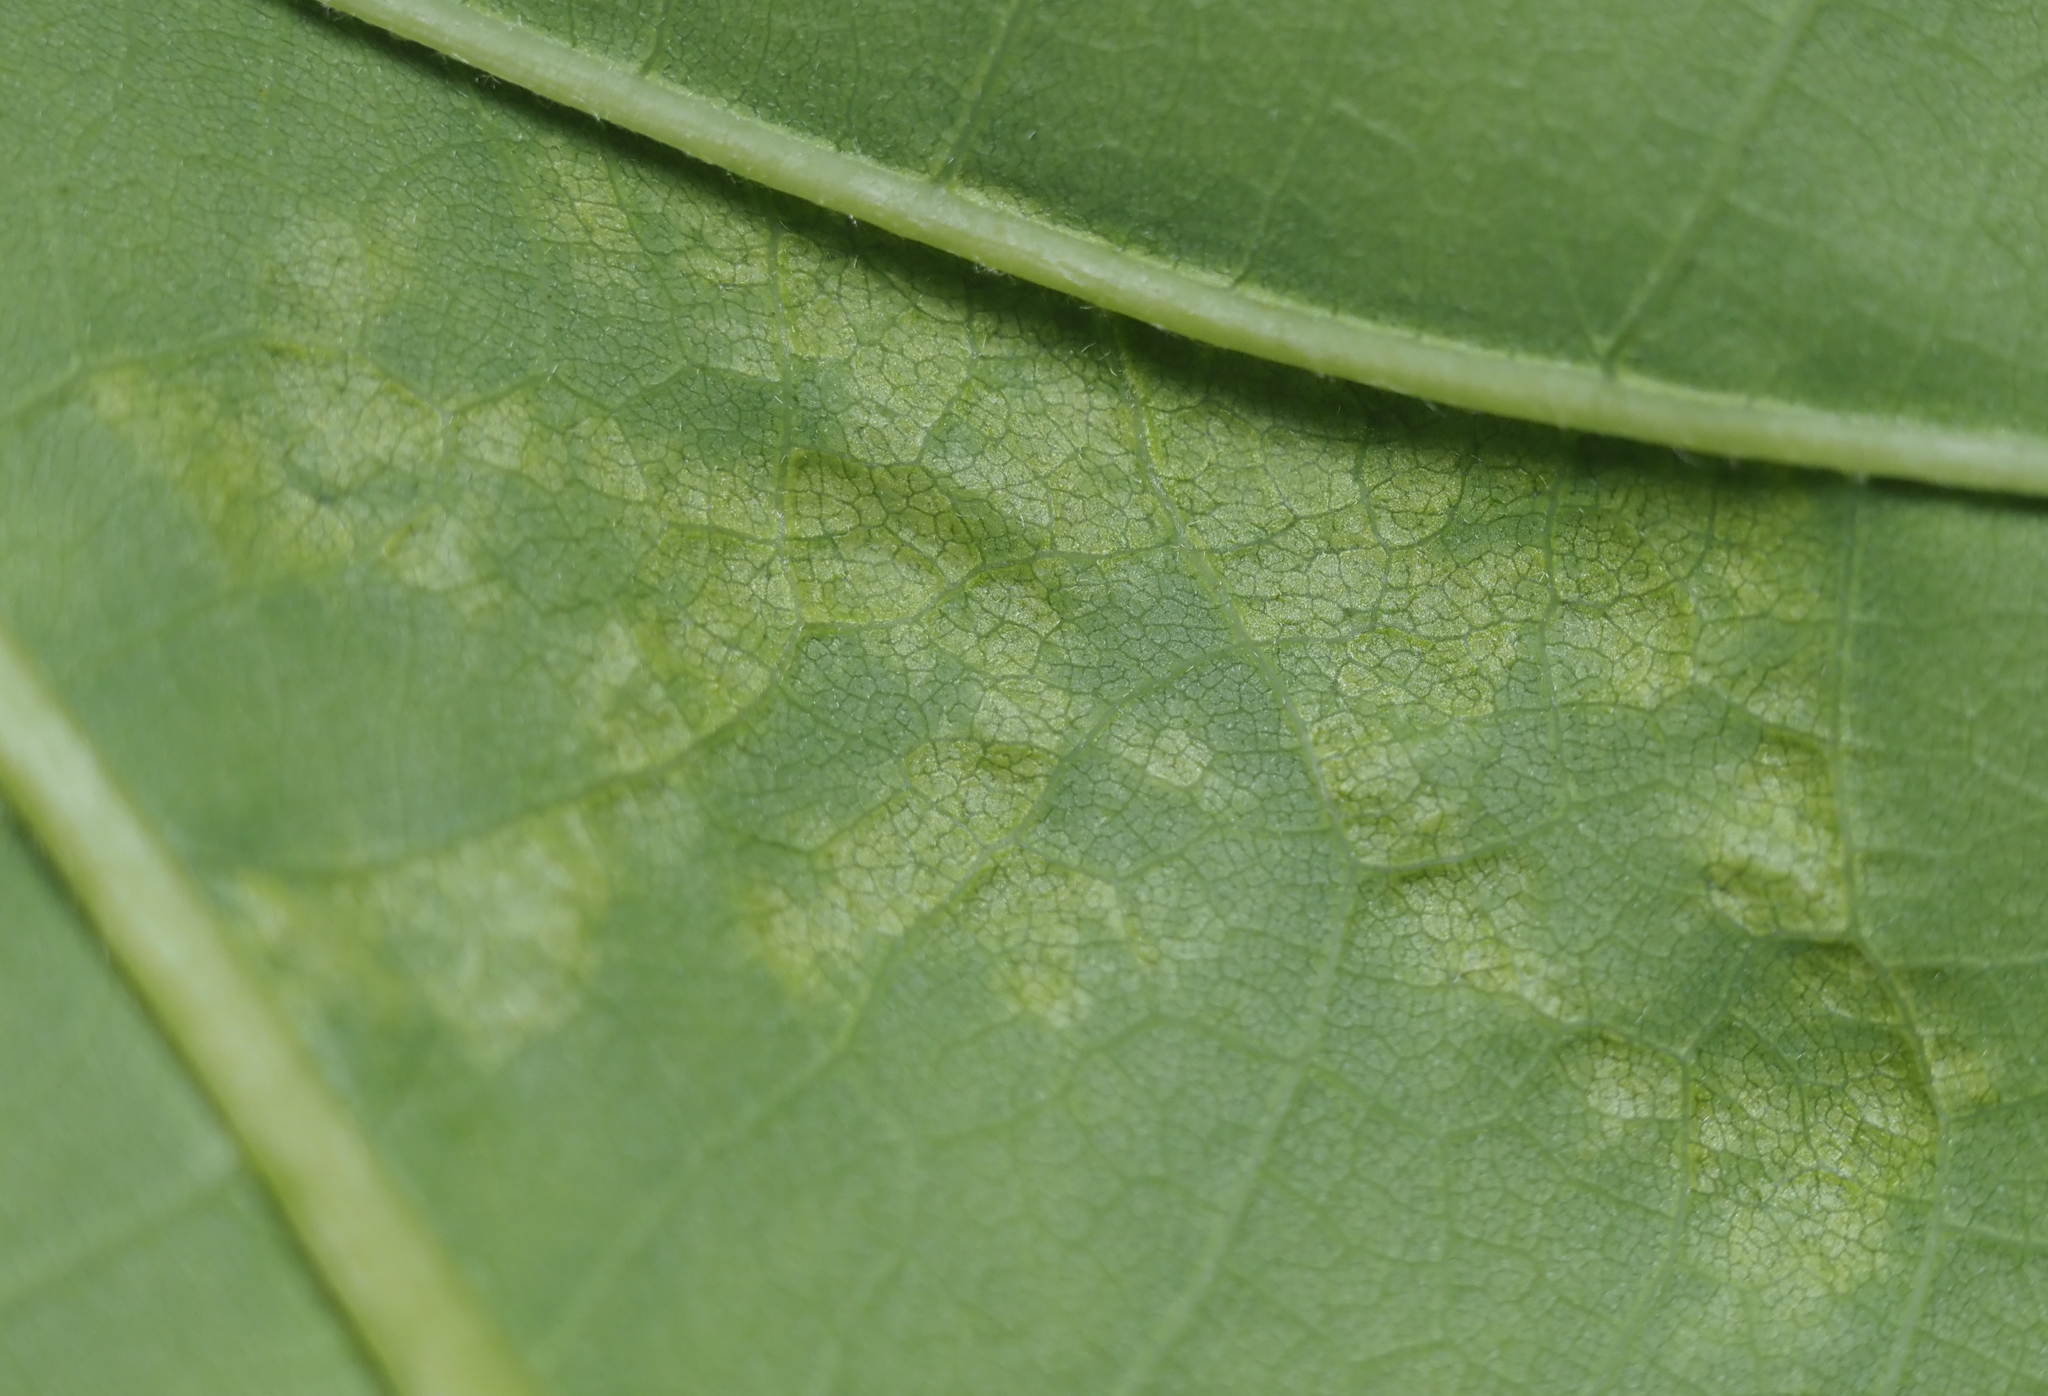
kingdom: Fungi
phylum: Ascomycota
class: Taphrinomycetes
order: Taphrinales
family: Taphrinaceae
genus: Taphrina
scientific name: Taphrina caerulescens
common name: Oak leaf blister
